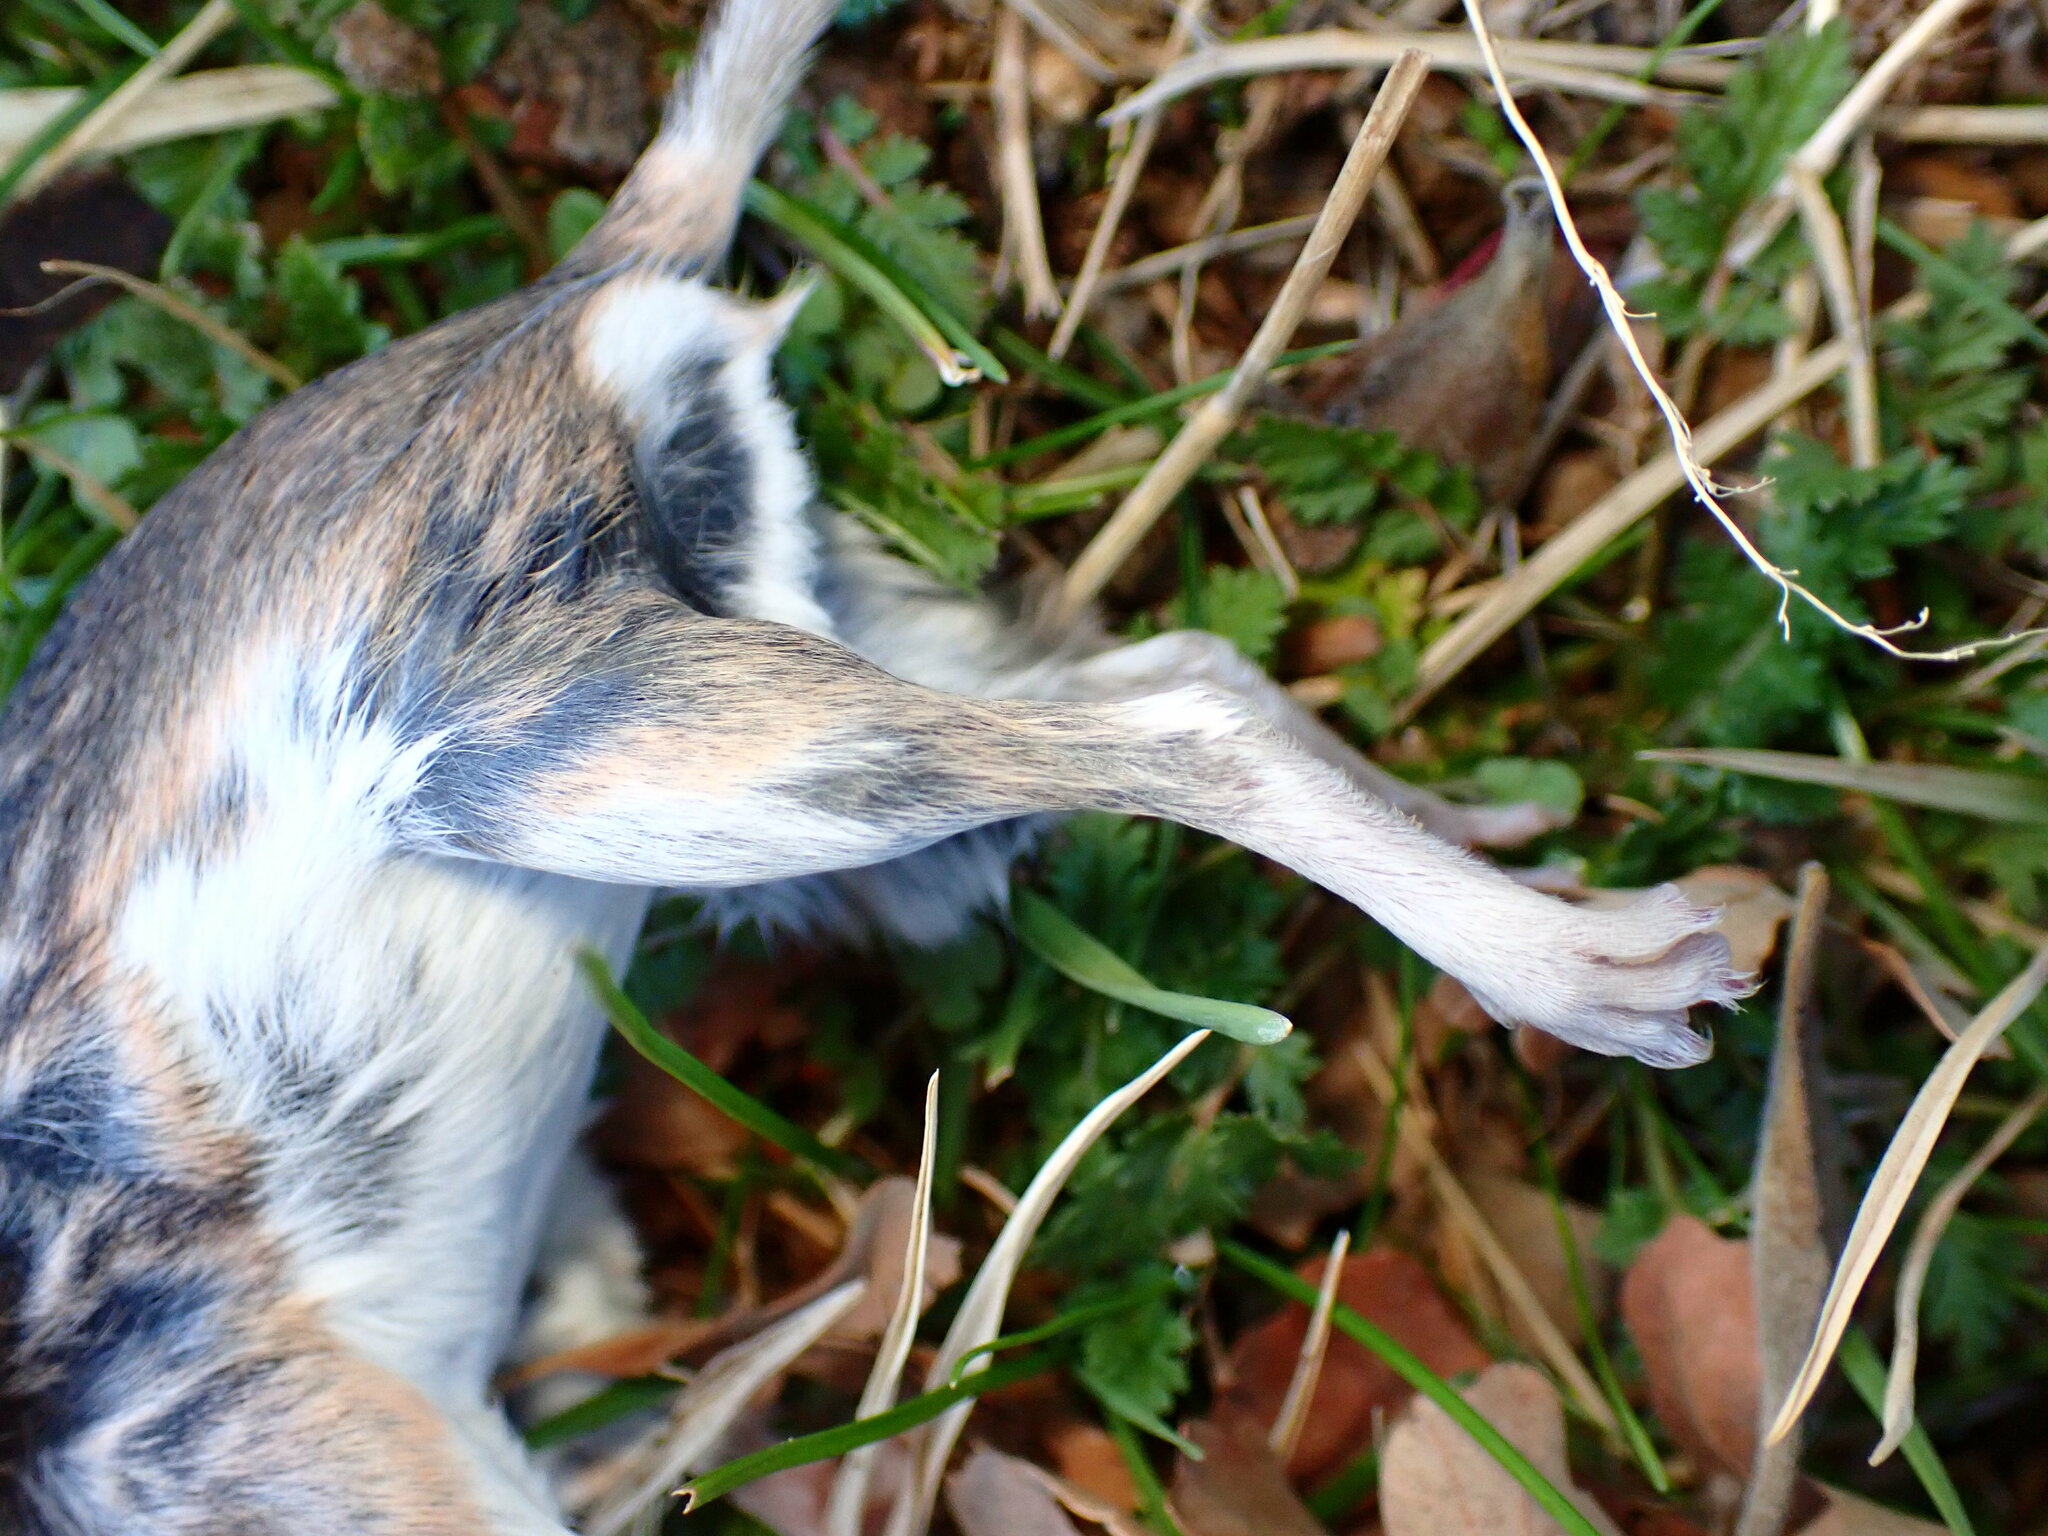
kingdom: Animalia
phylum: Chordata
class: Mammalia
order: Rodentia
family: Cricetidae
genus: Peromyscus
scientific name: Peromyscus maniculatus
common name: Deer mouse
